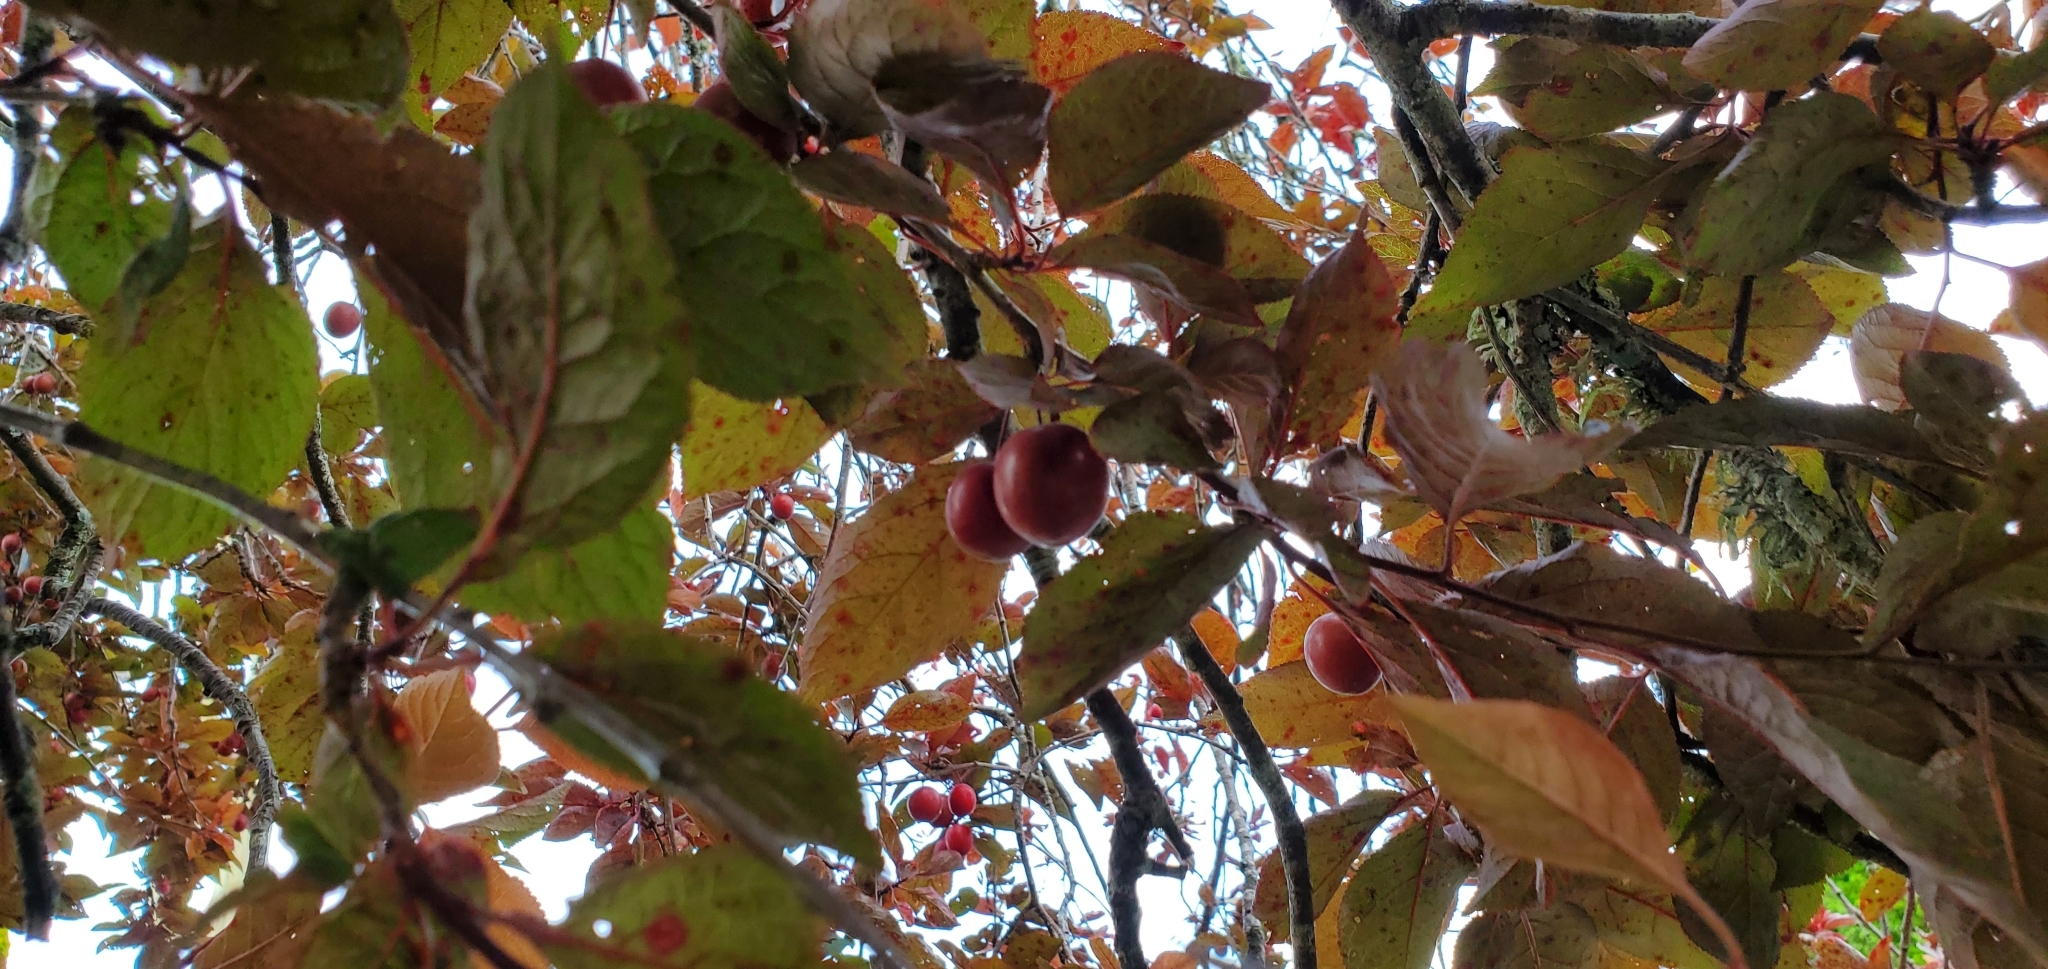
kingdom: Plantae
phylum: Tracheophyta
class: Magnoliopsida
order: Rosales
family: Rosaceae
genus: Prunus
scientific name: Prunus domestica
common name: Wild plum
